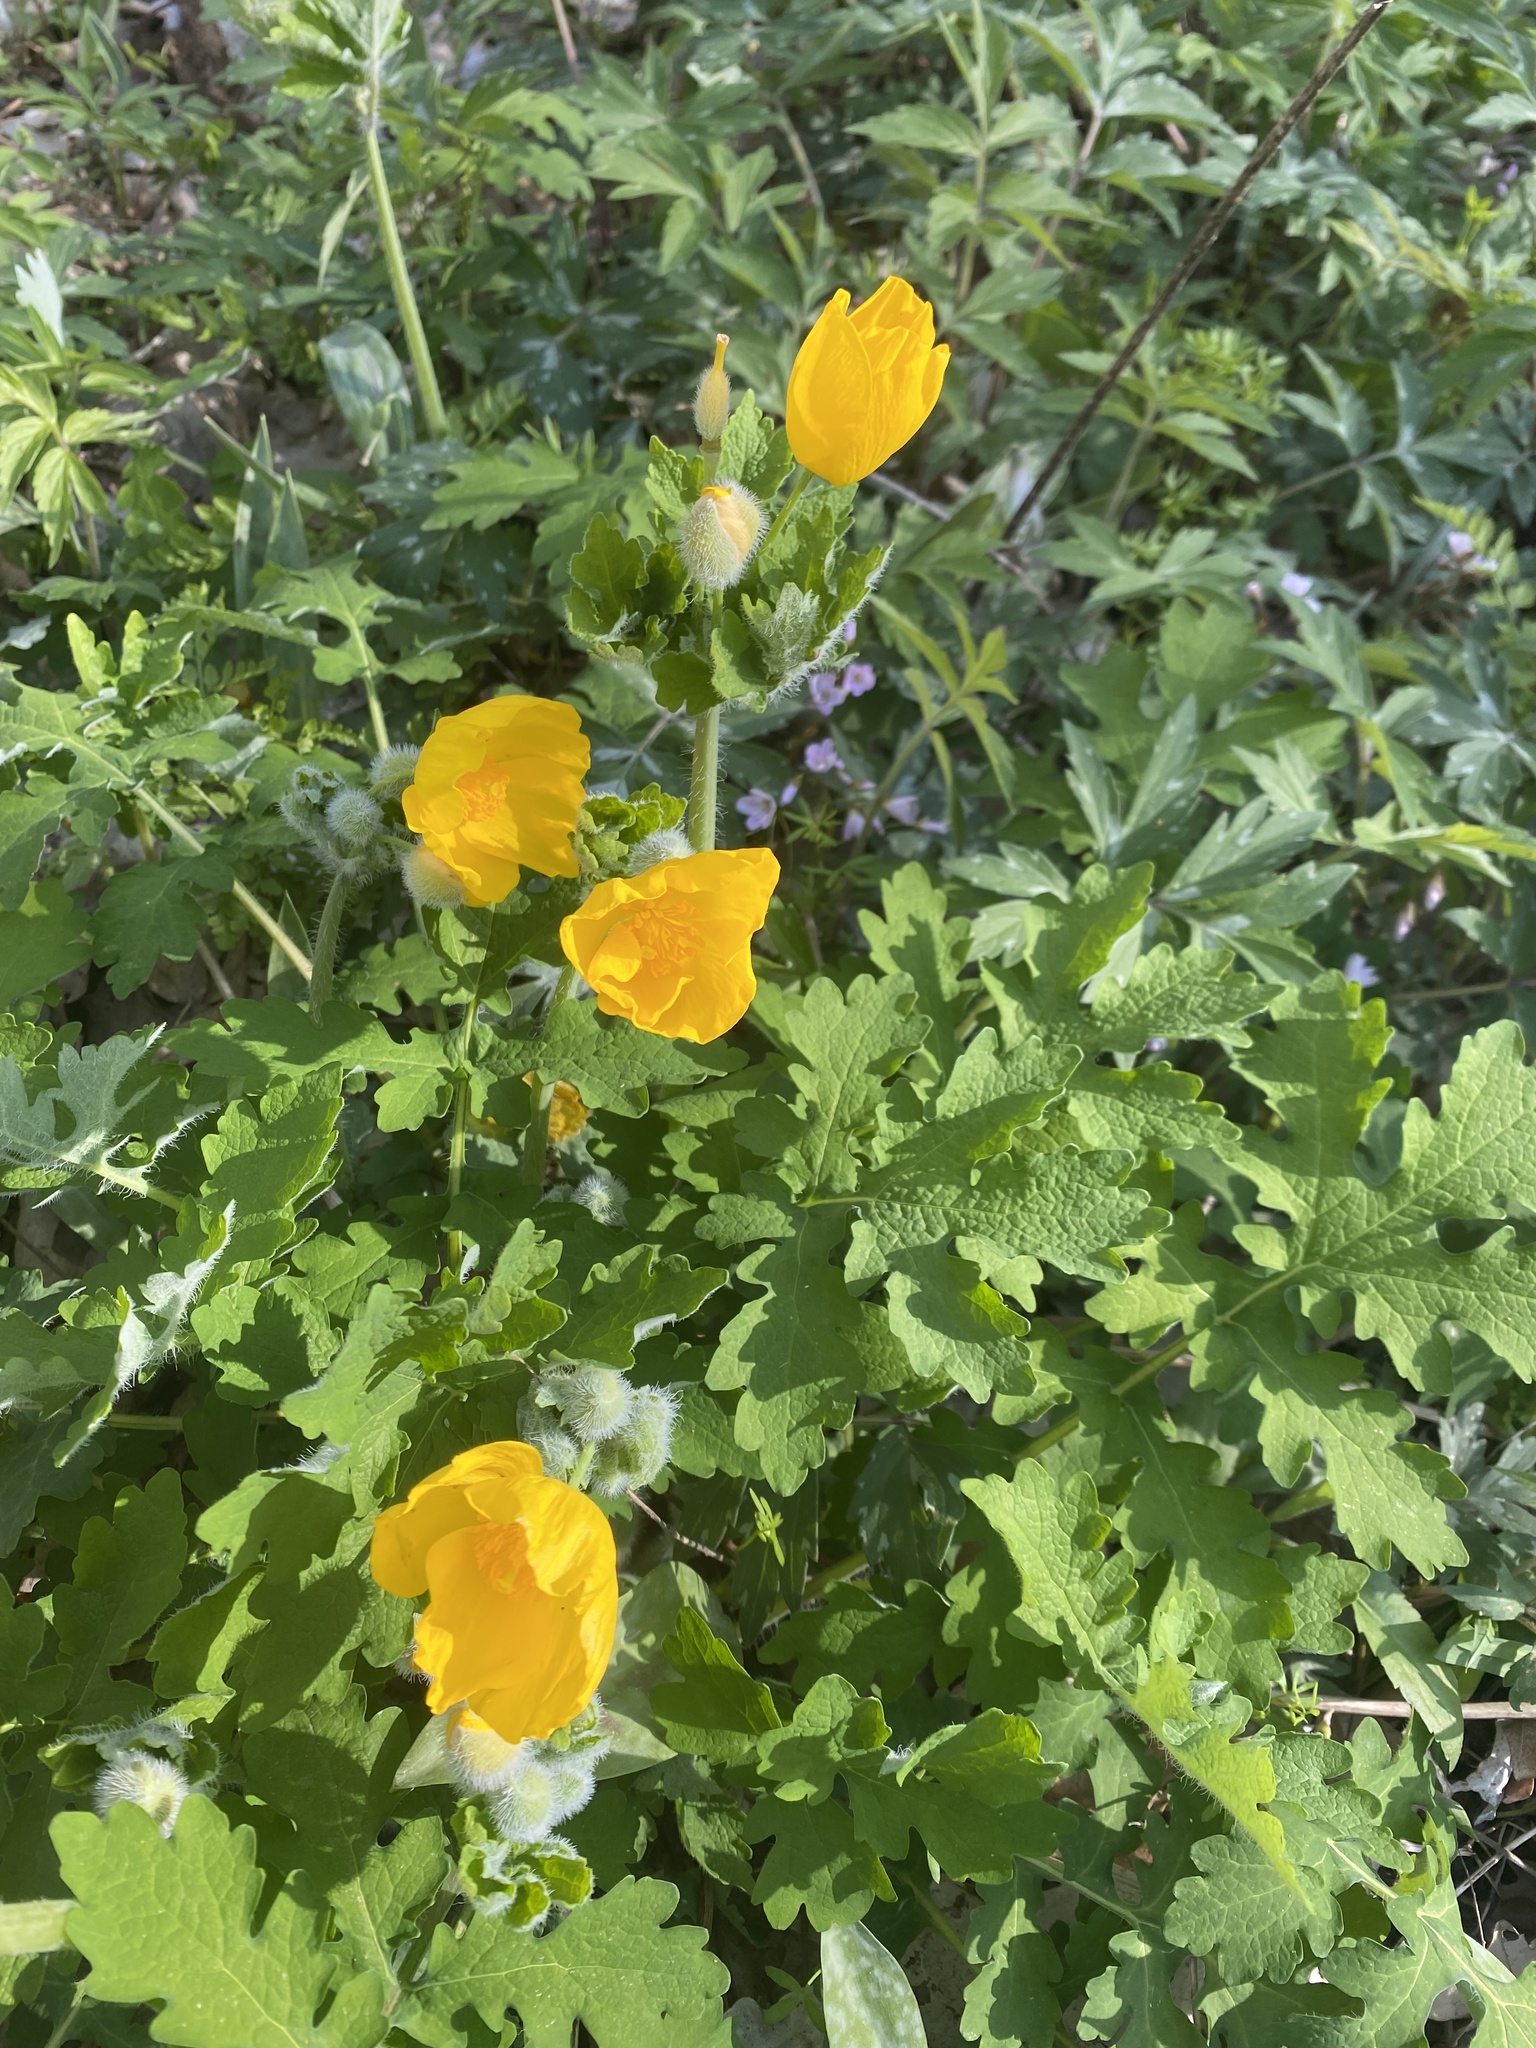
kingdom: Plantae
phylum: Tracheophyta
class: Magnoliopsida
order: Ranunculales
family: Papaveraceae
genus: Stylophorum
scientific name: Stylophorum diphyllum
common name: Celandine poppy
